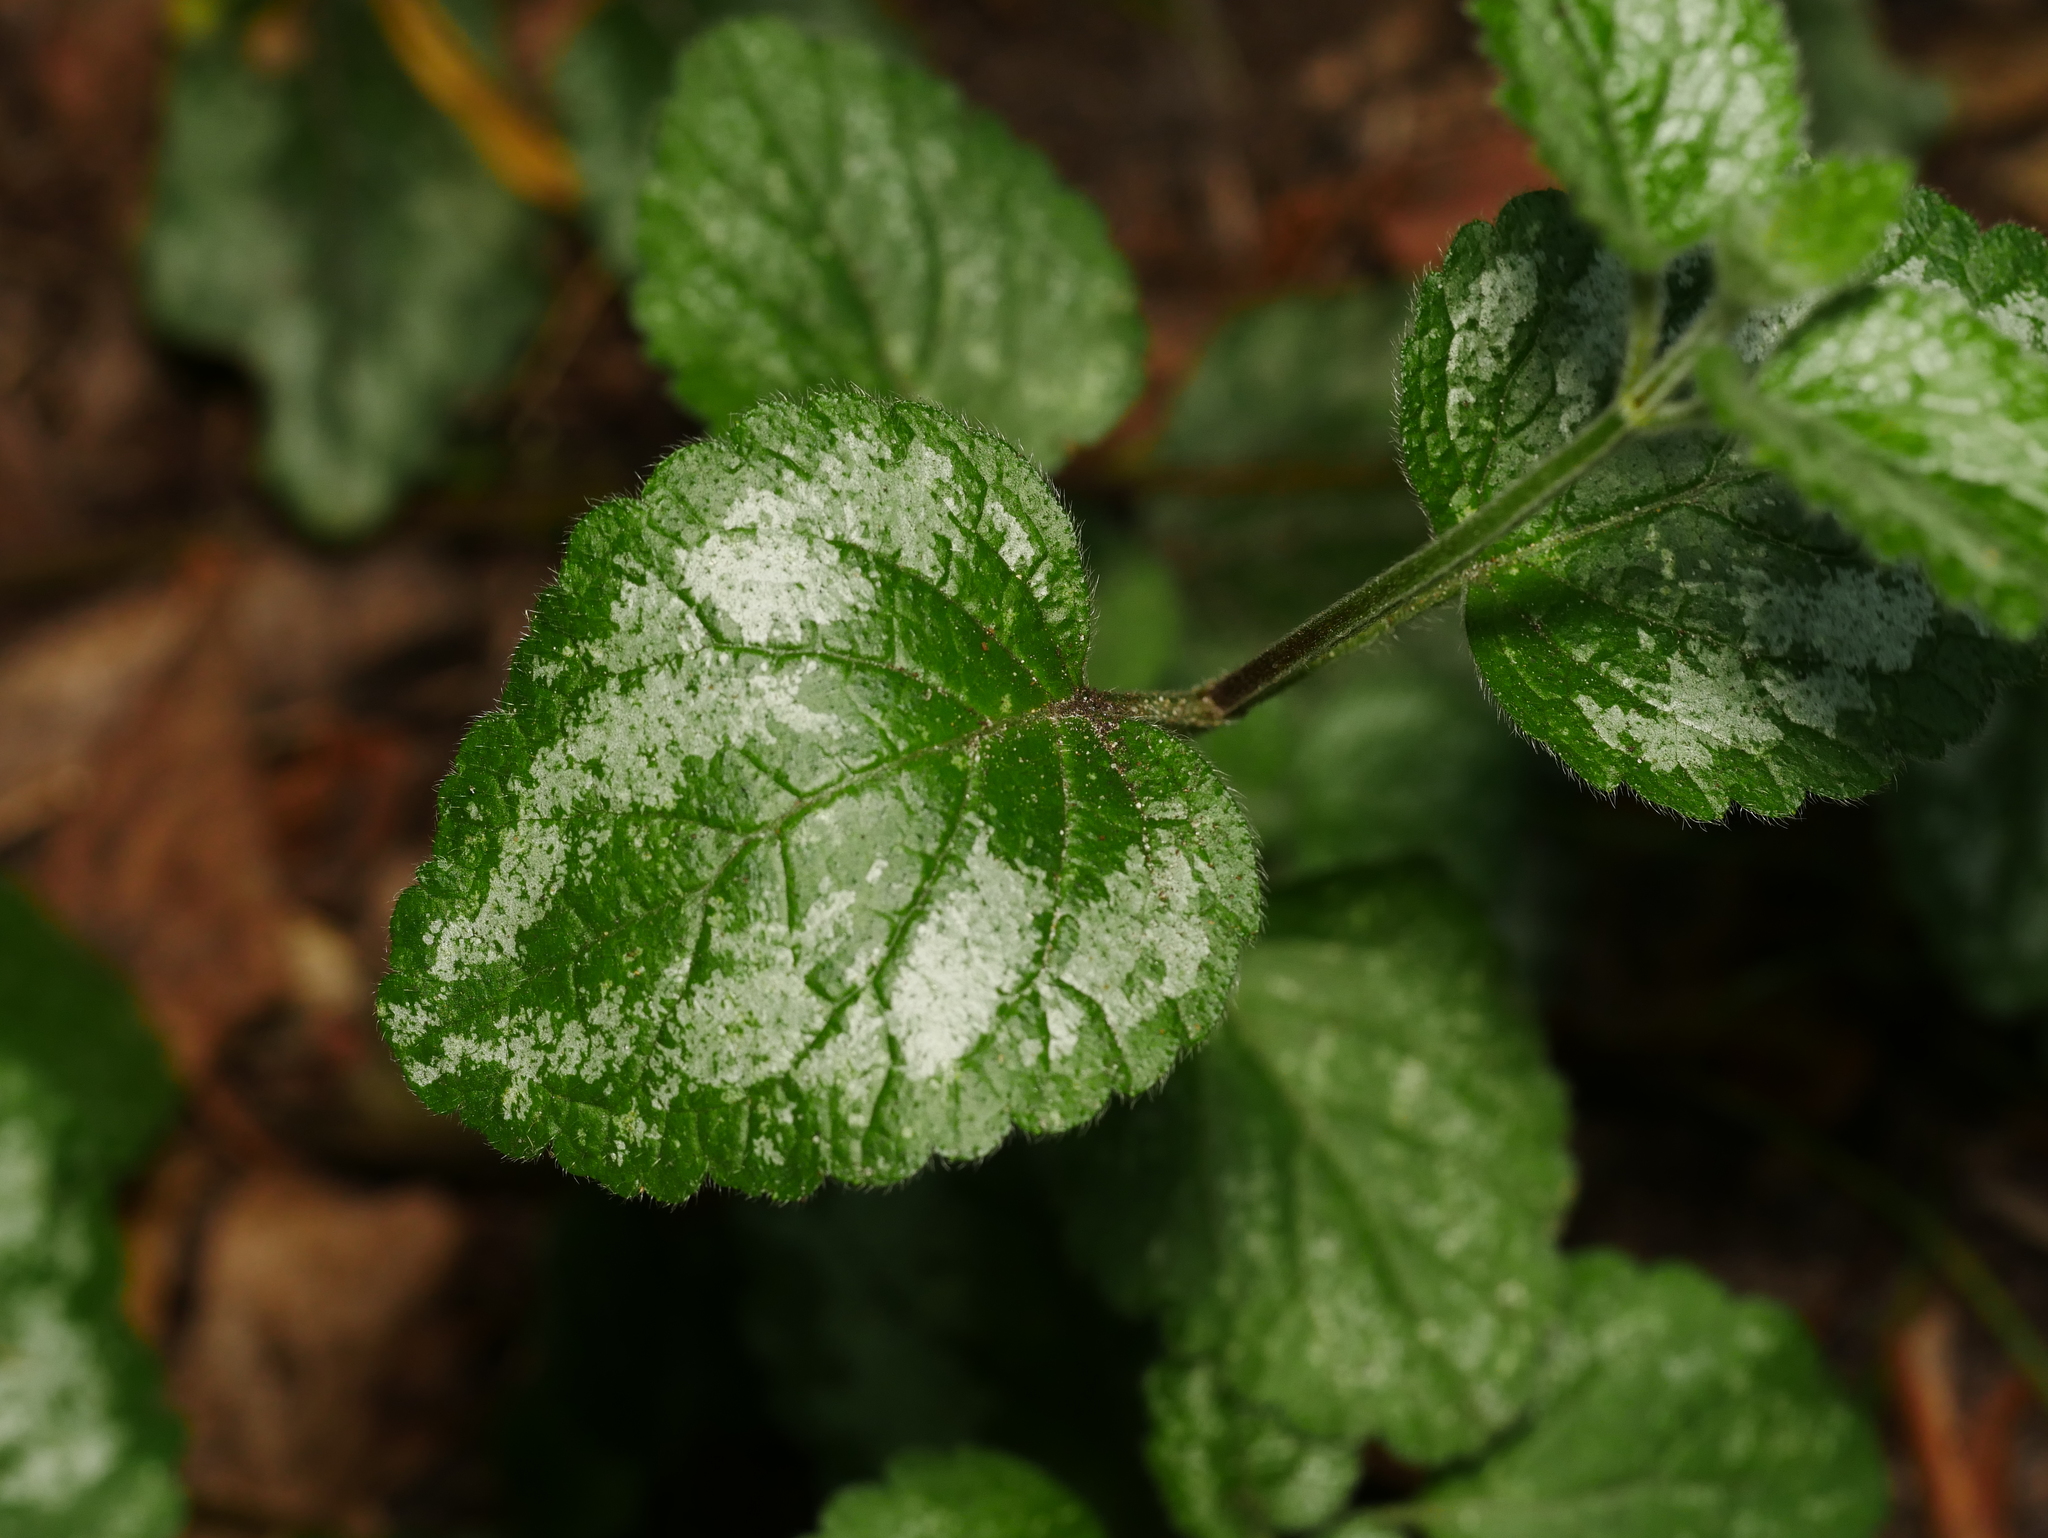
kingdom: Plantae
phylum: Tracheophyta
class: Magnoliopsida
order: Lamiales
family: Lamiaceae
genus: Lamium
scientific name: Lamium galeobdolon
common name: Yellow archangel
